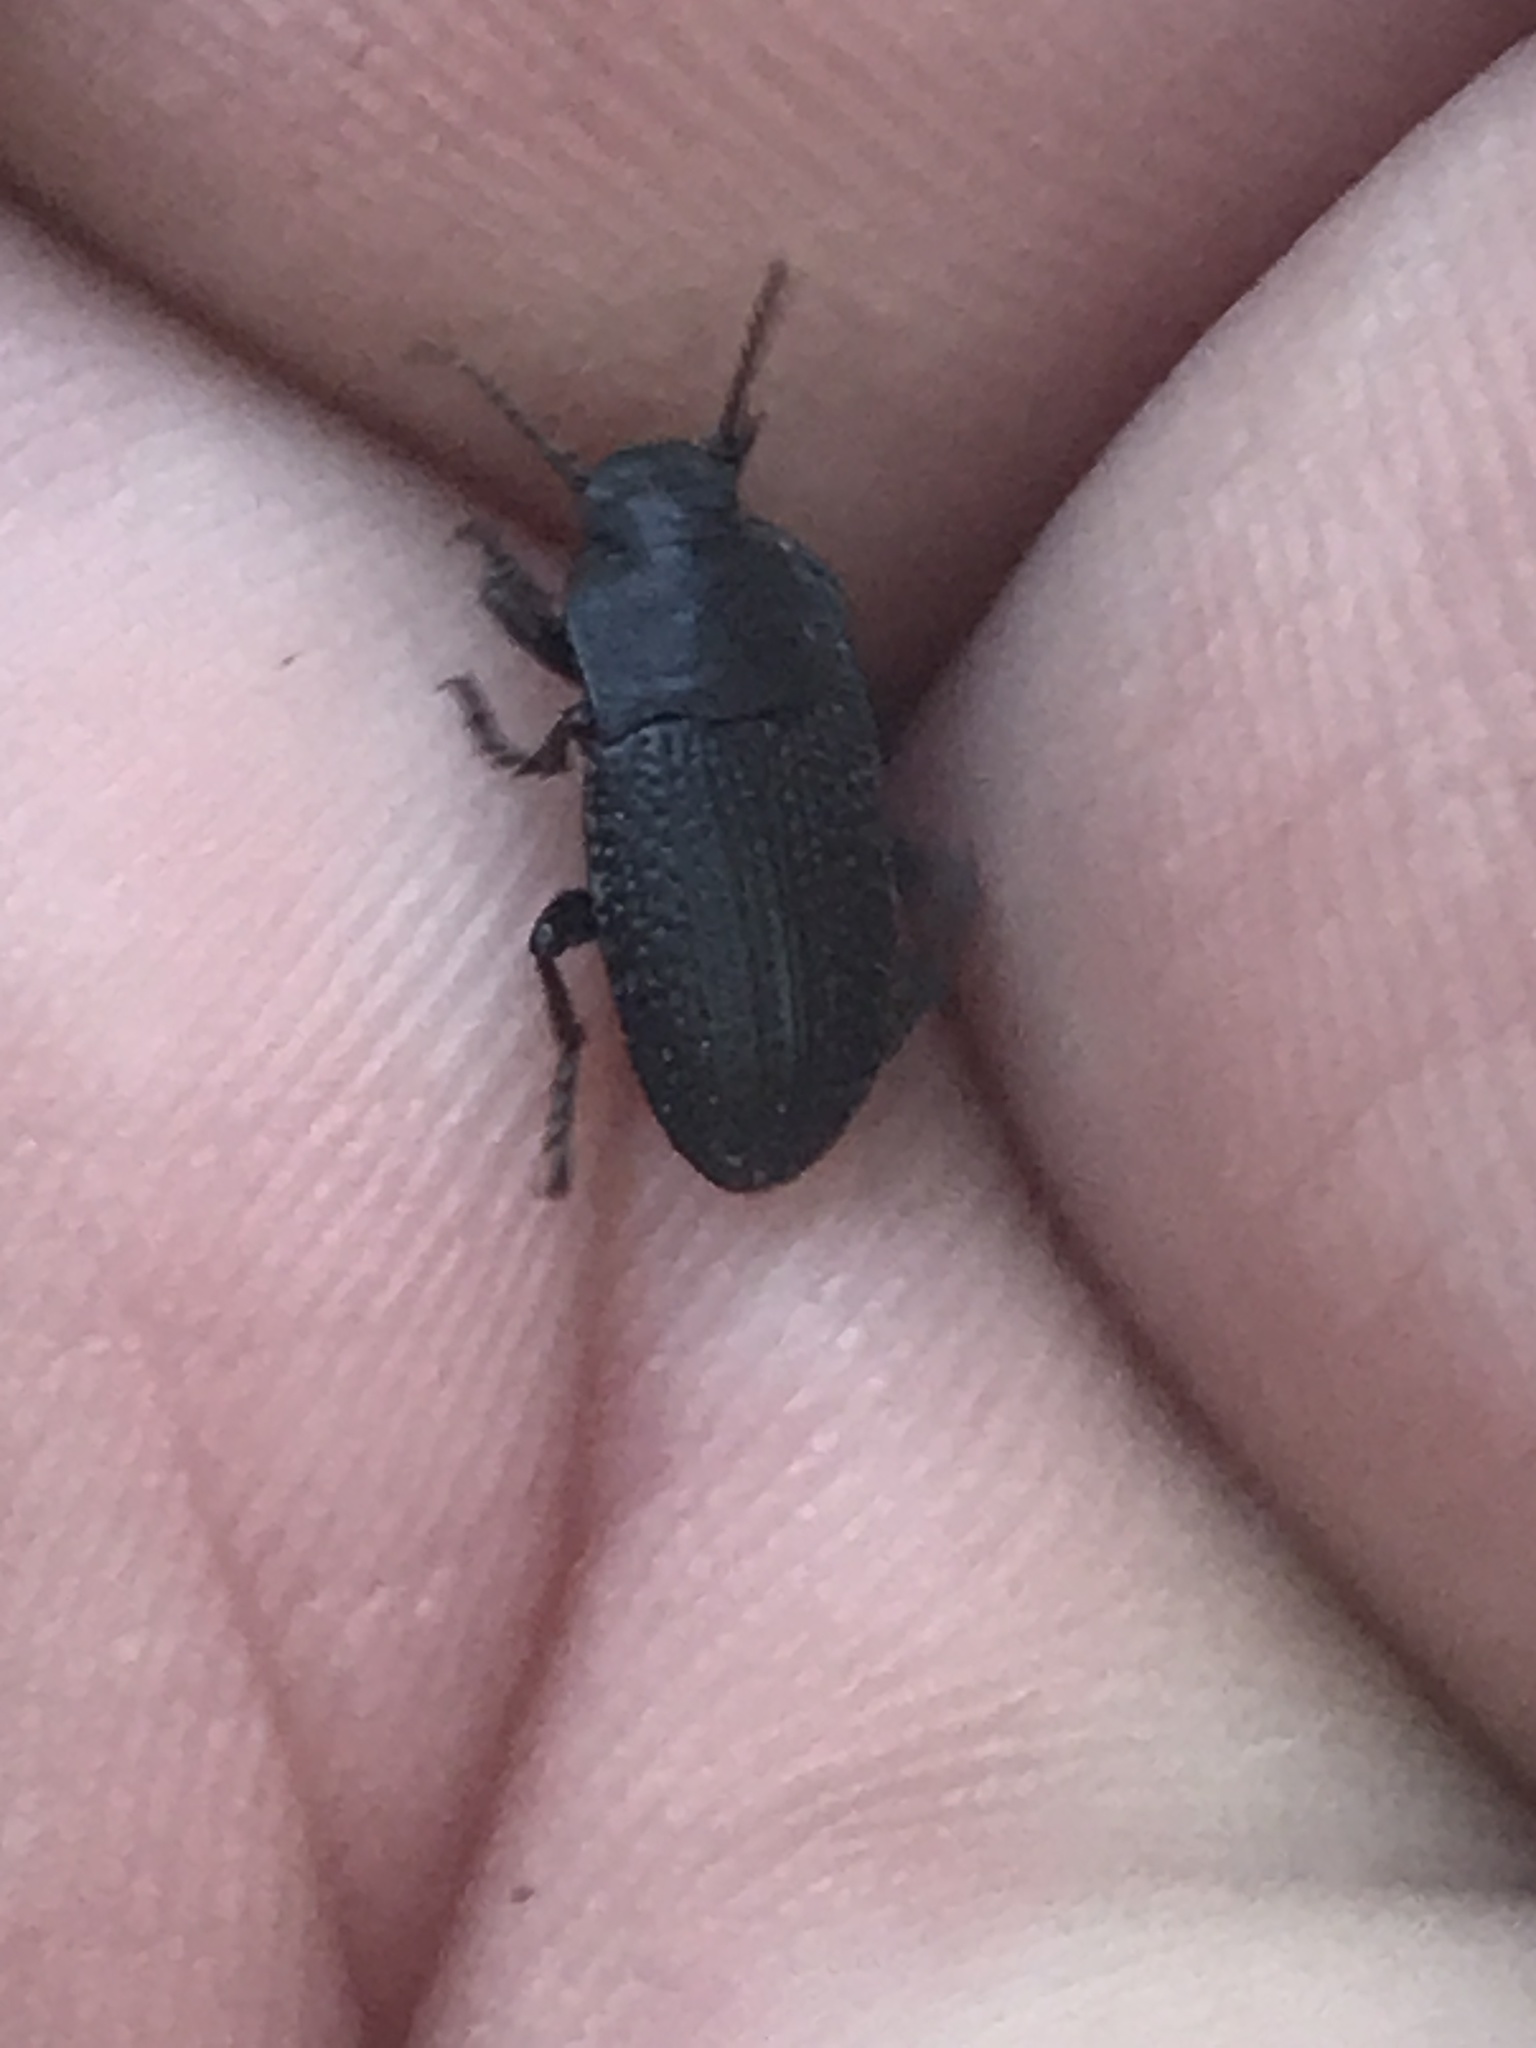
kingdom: Animalia
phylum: Arthropoda
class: Insecta
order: Coleoptera
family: Tenebrionidae
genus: Asiopus
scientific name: Asiopus
